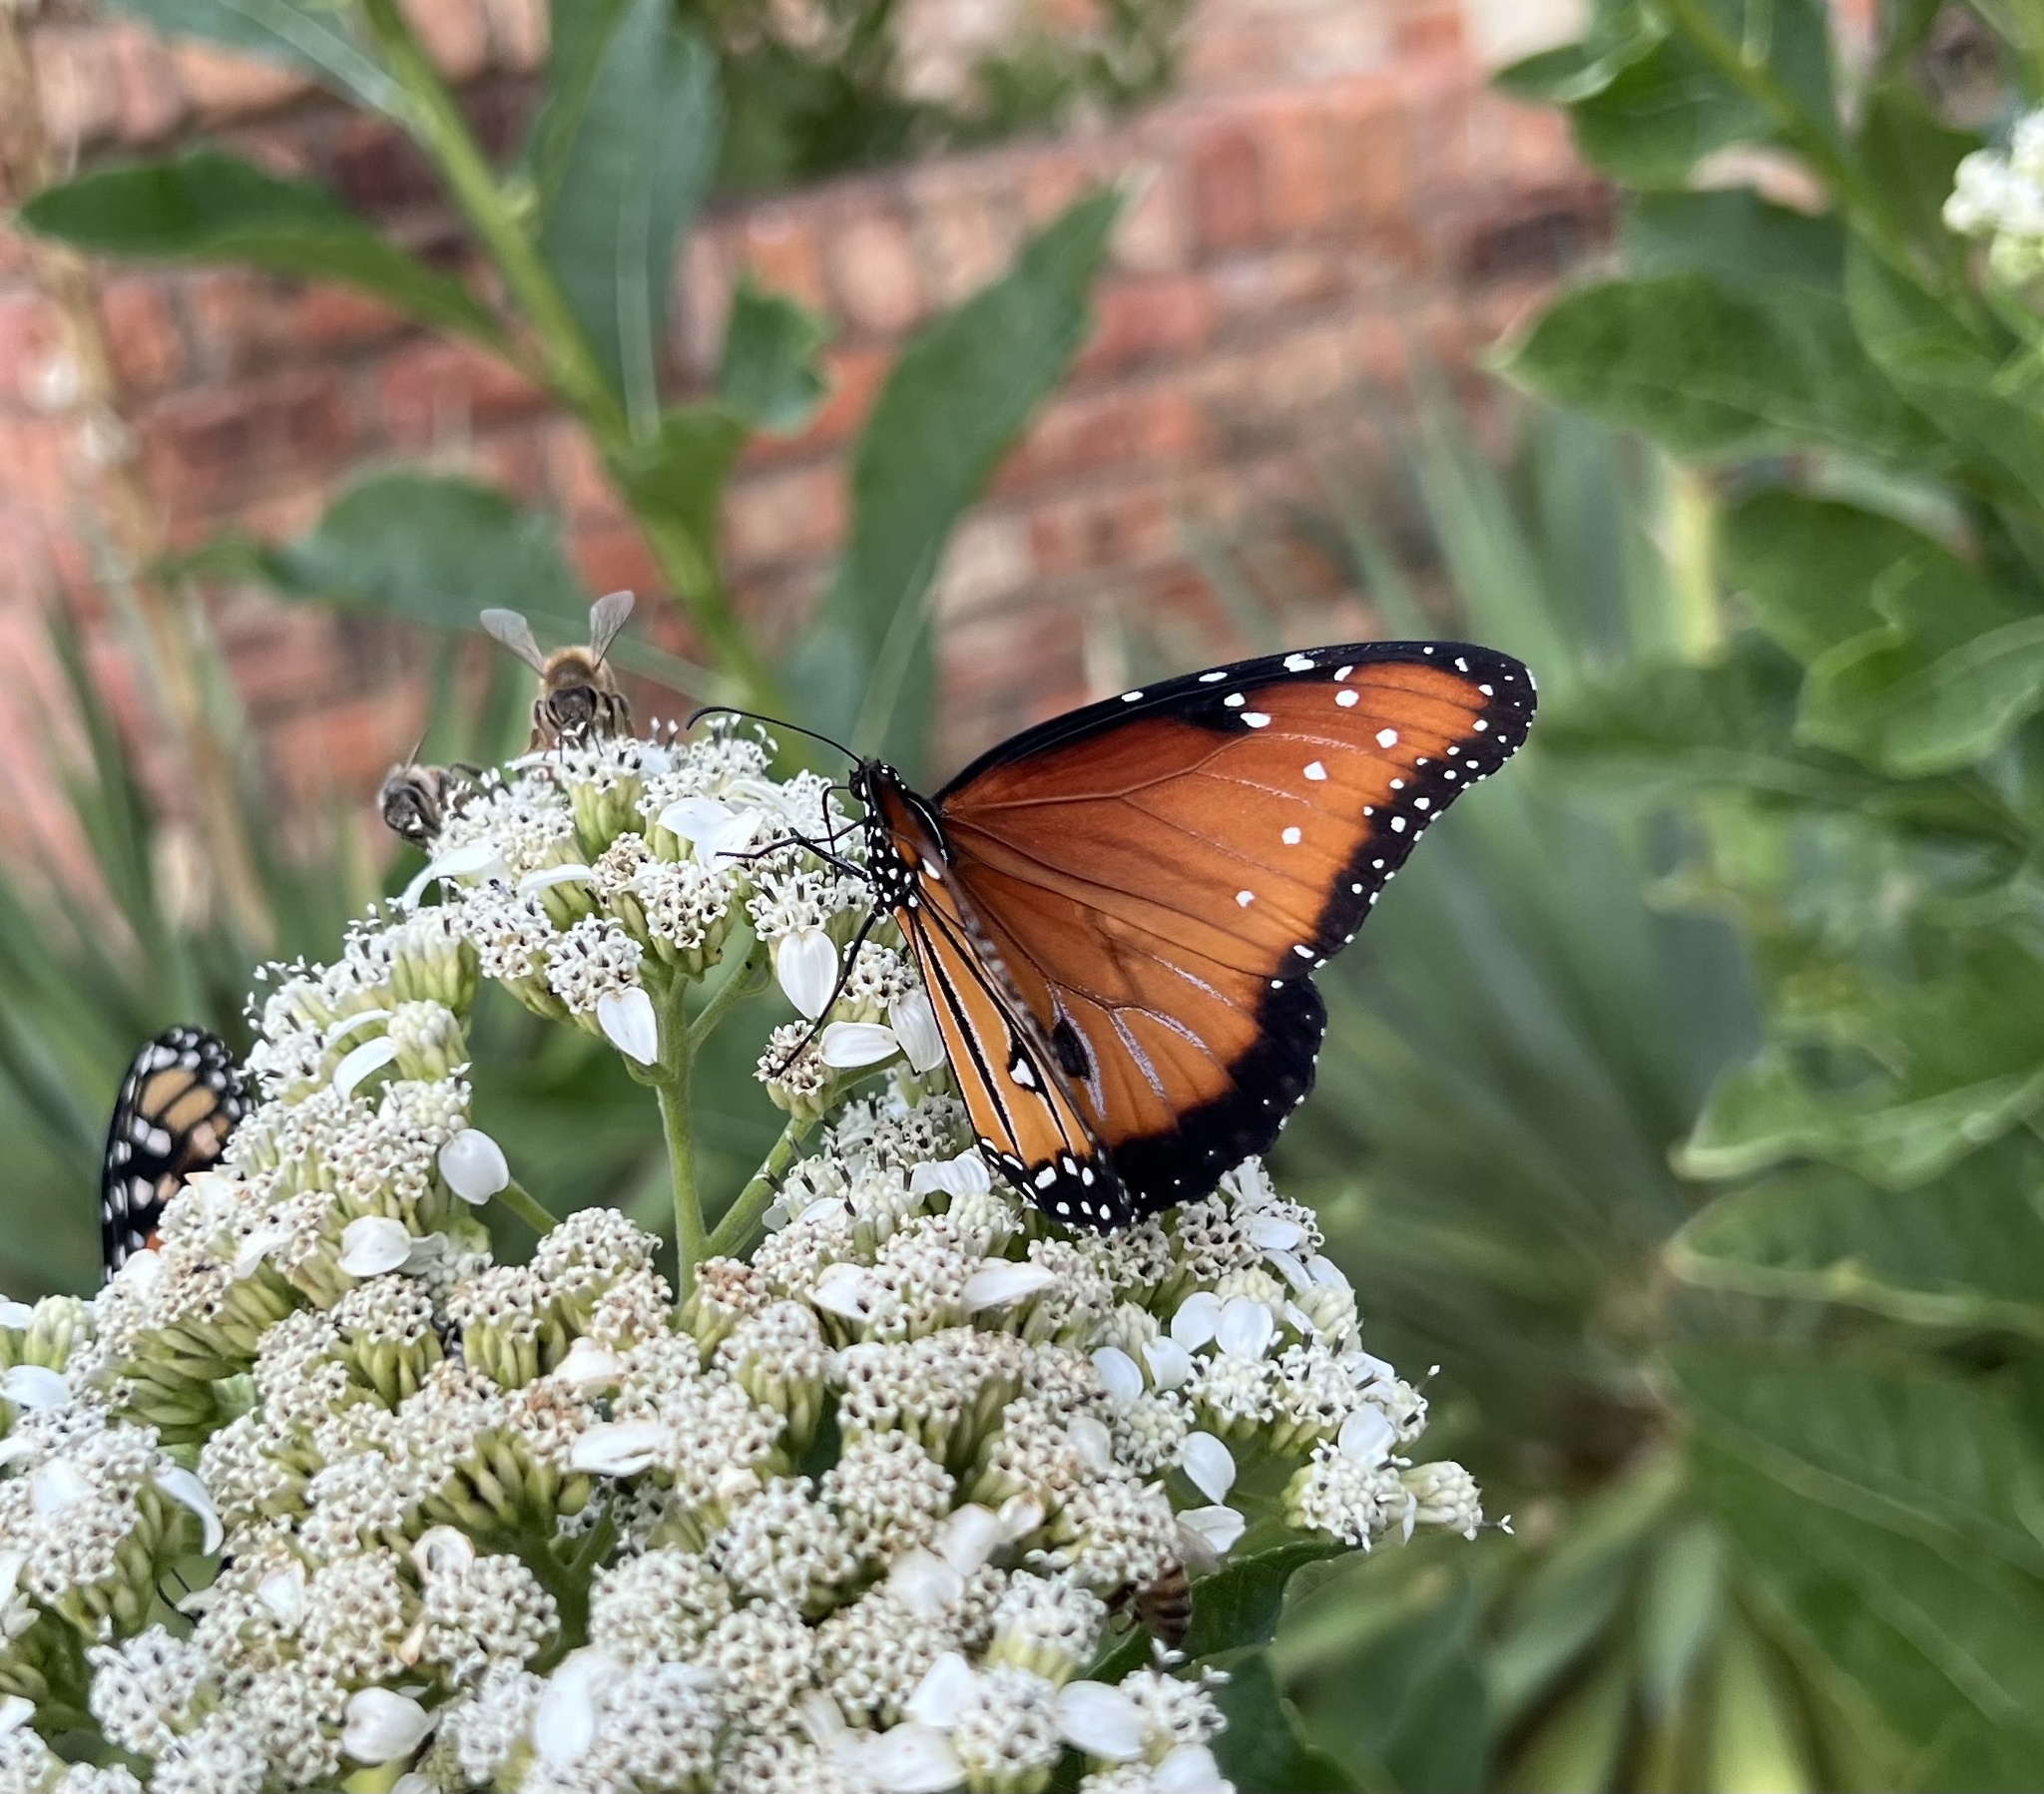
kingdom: Animalia
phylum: Arthropoda
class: Insecta
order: Lepidoptera
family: Nymphalidae
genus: Danaus
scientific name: Danaus gilippus
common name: Queen
